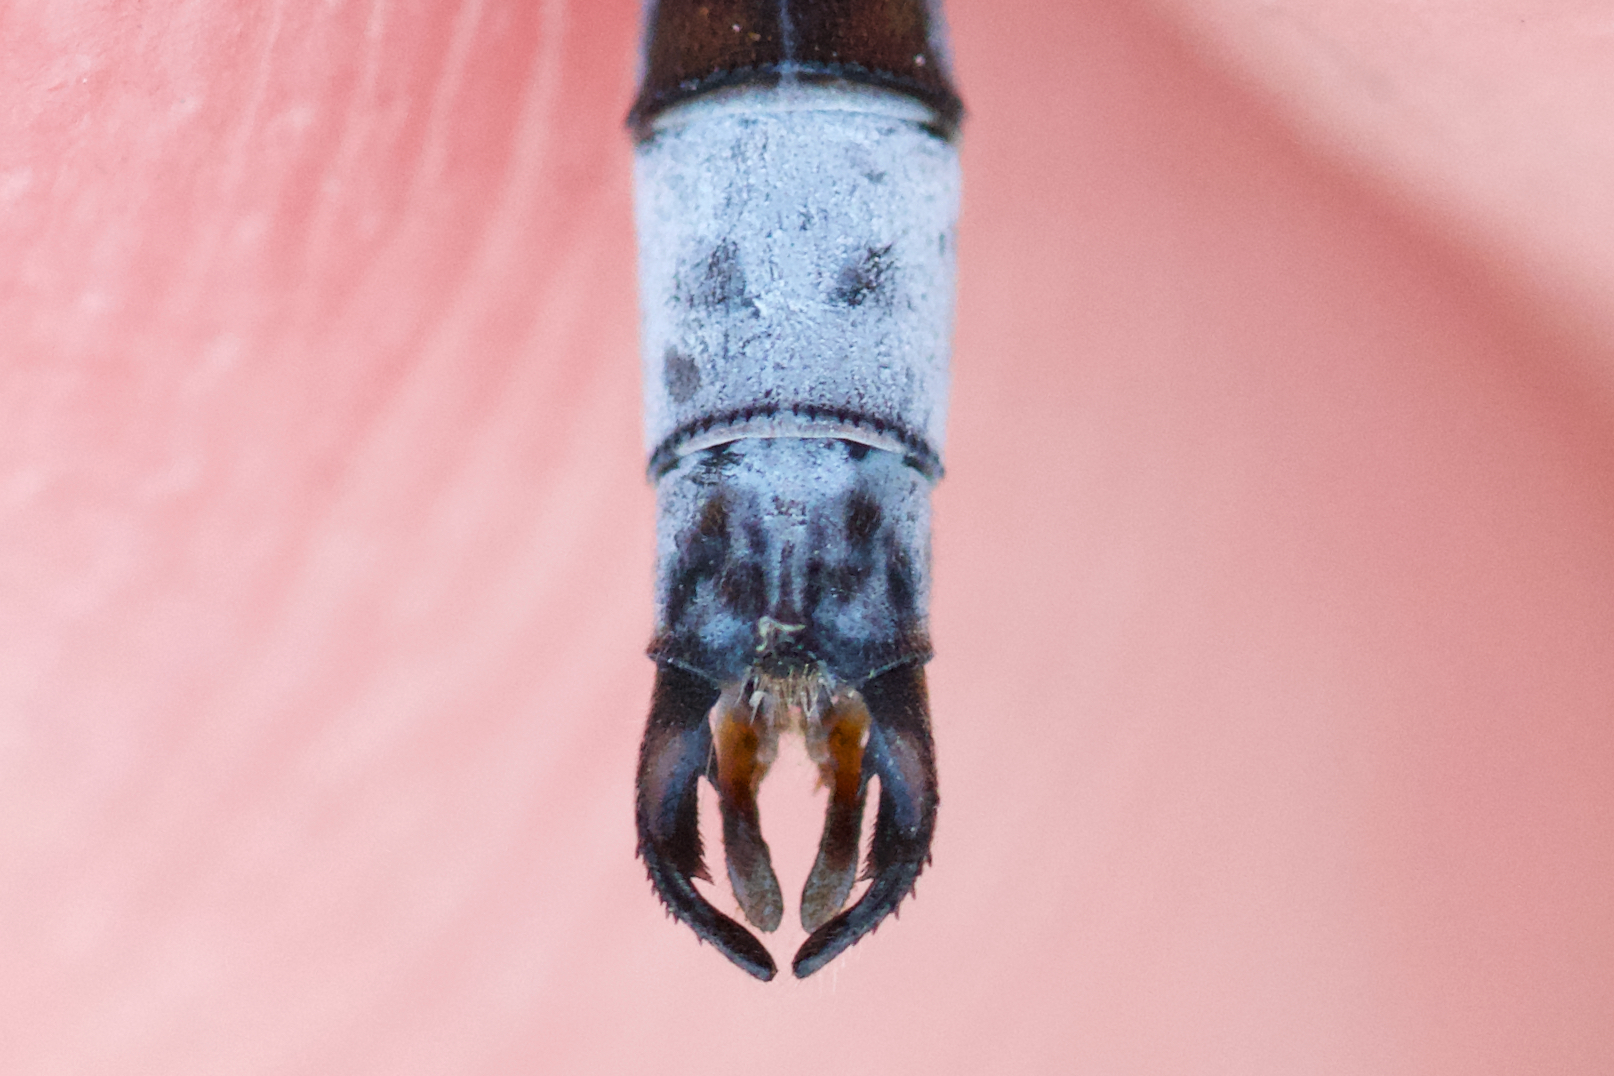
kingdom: Animalia
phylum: Arthropoda
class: Insecta
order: Odonata
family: Lestidae
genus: Lestes
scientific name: Lestes disjunctus
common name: Northern spreadwing
